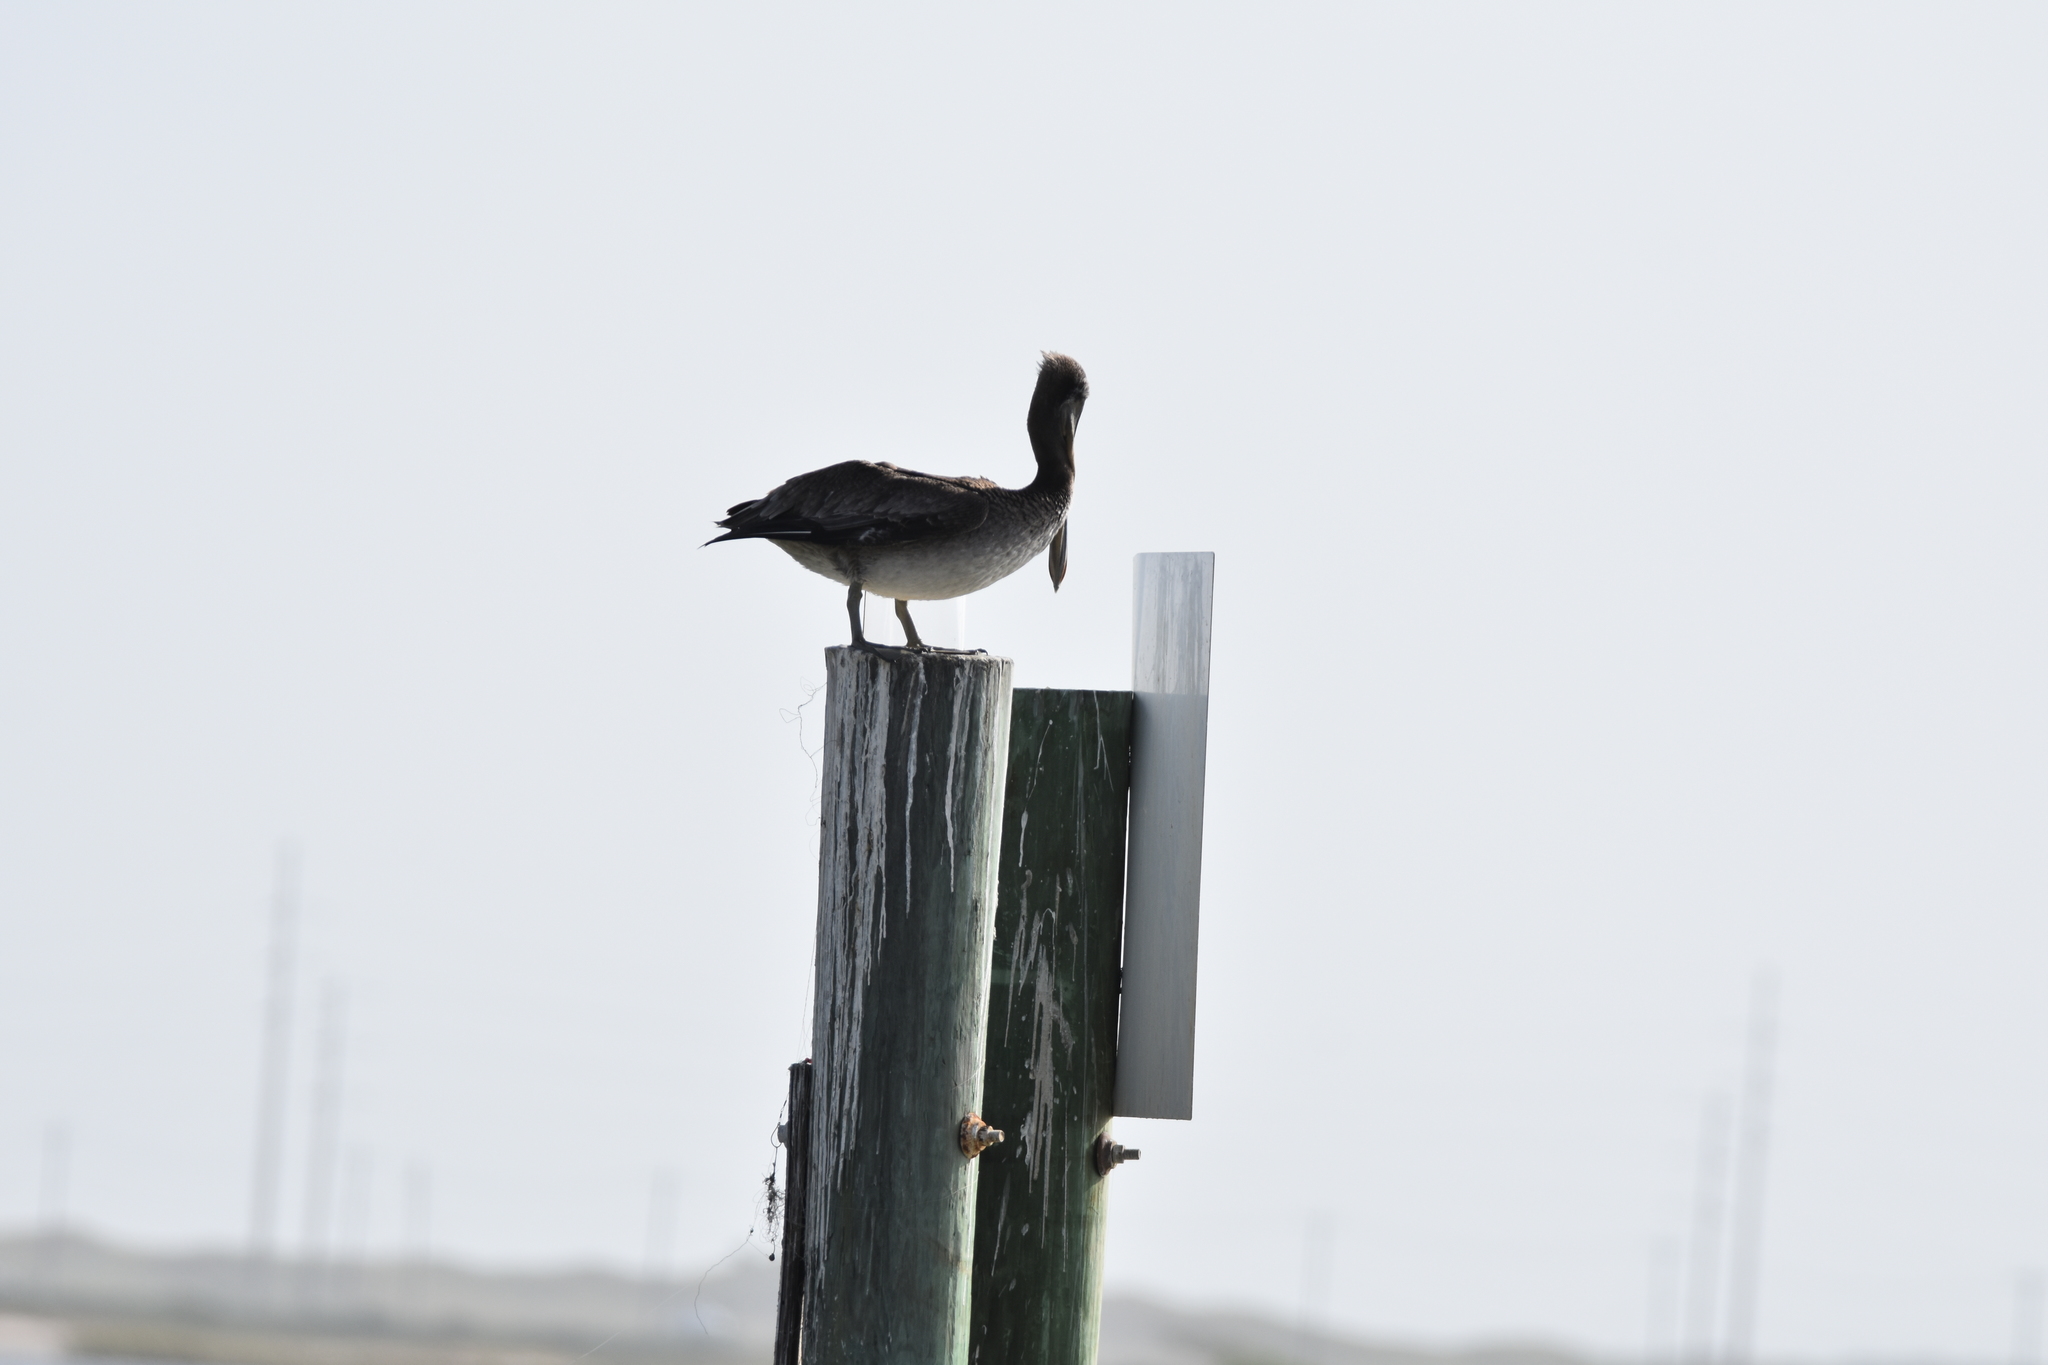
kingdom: Animalia
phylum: Chordata
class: Aves
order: Pelecaniformes
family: Pelecanidae
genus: Pelecanus
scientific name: Pelecanus occidentalis
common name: Brown pelican
